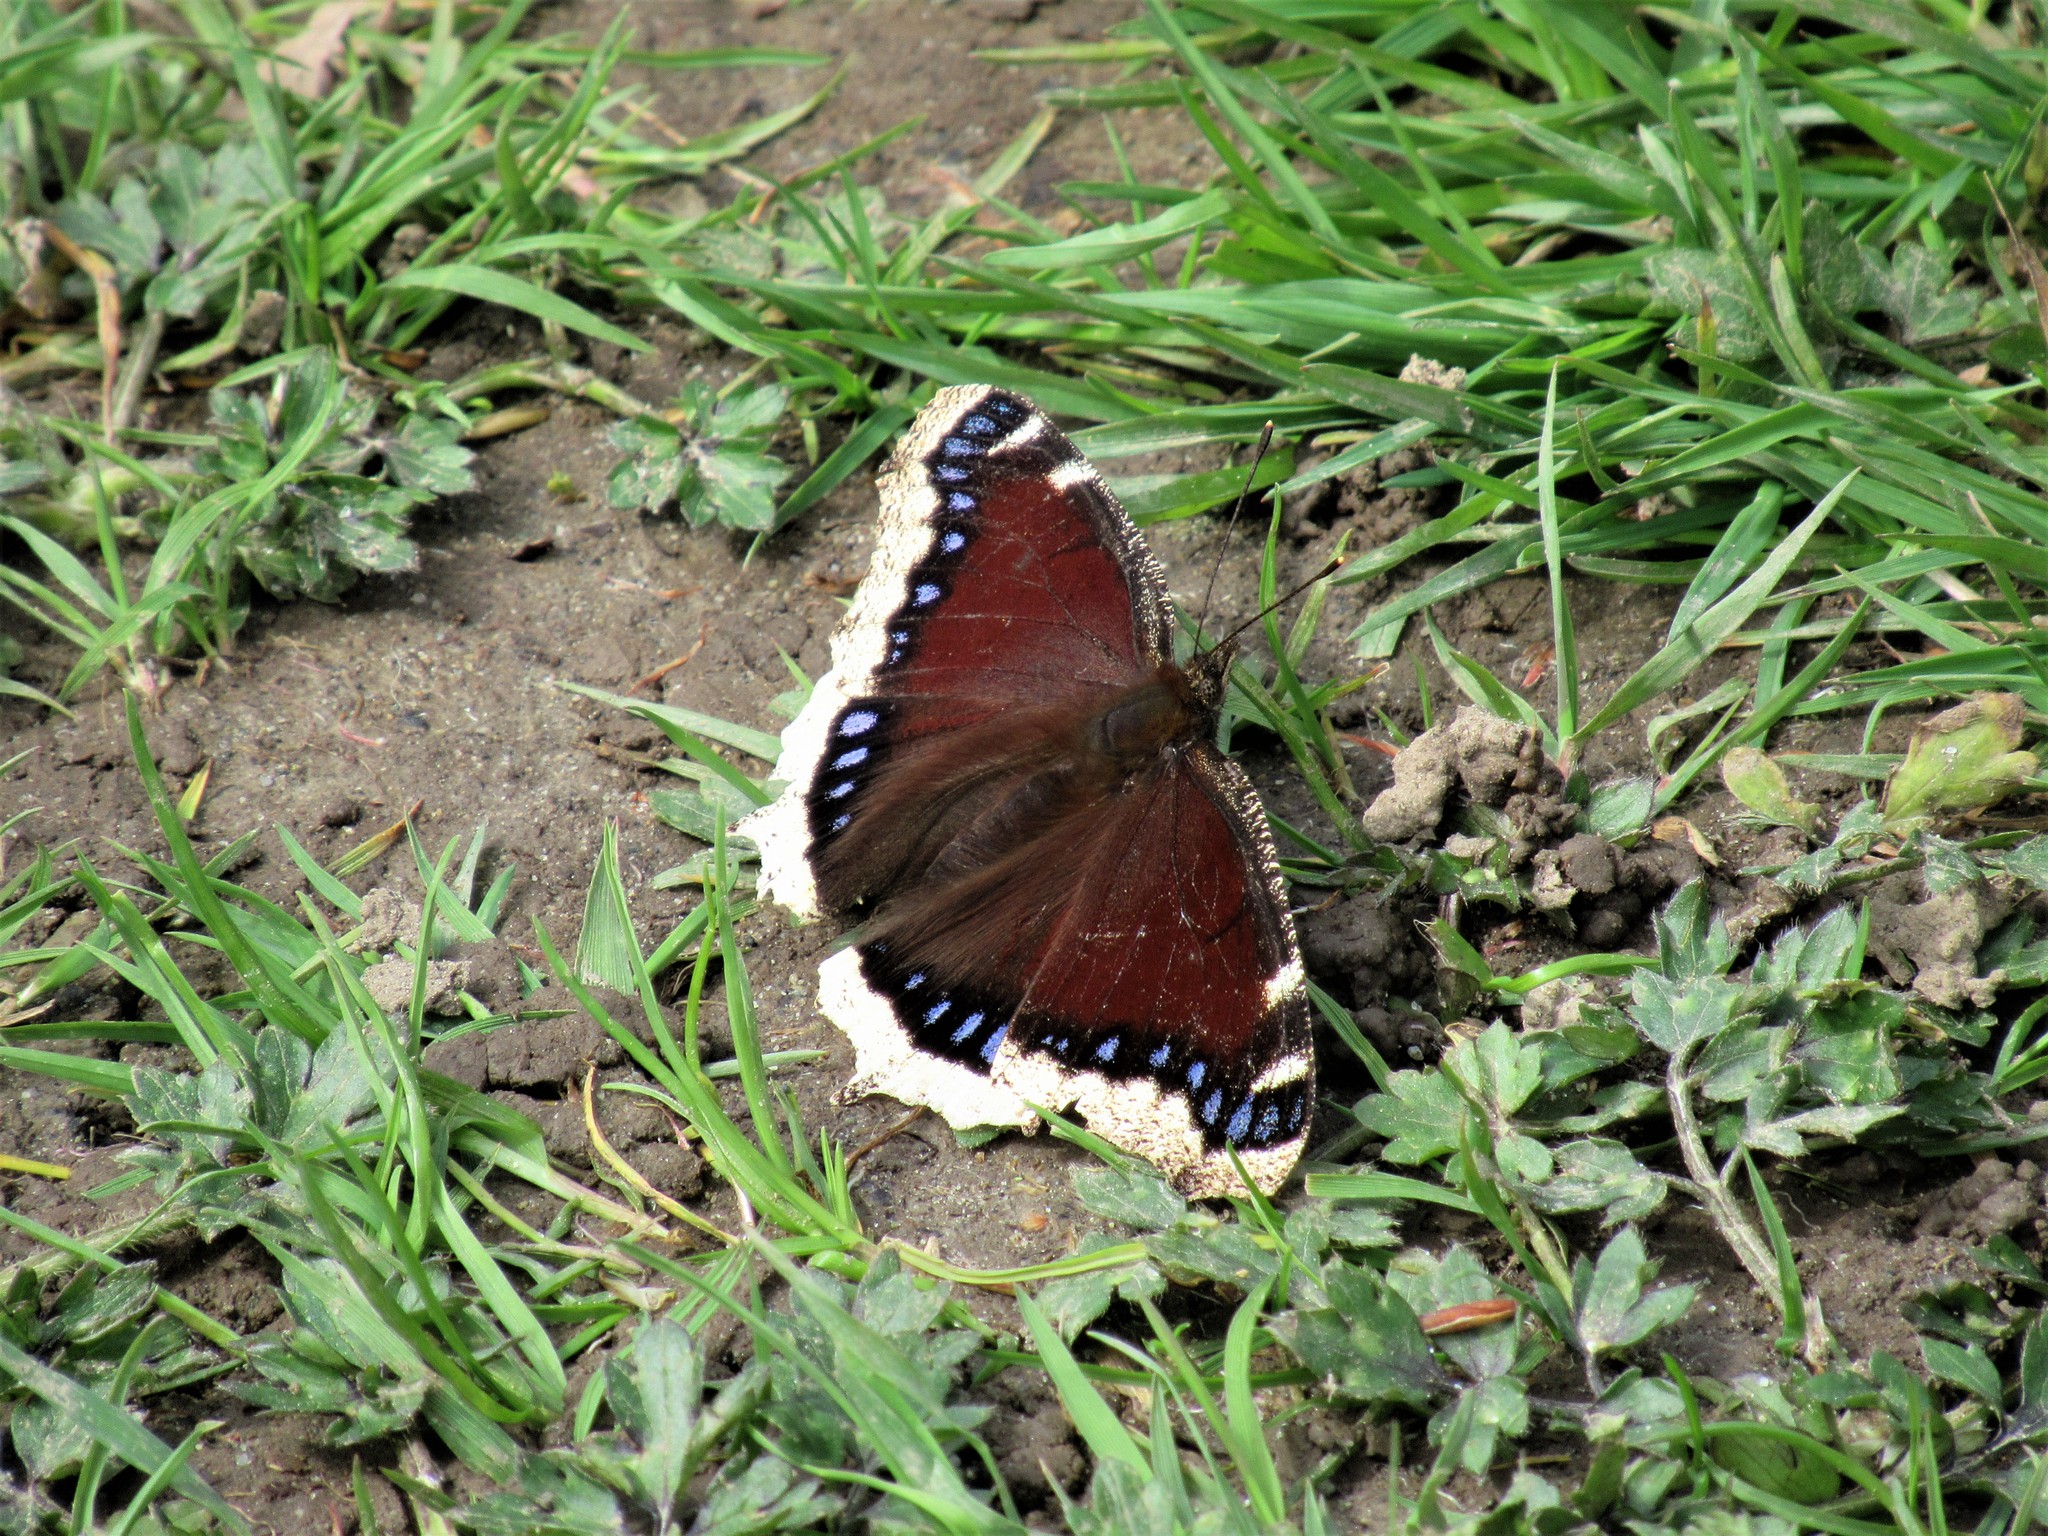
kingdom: Animalia
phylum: Arthropoda
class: Insecta
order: Lepidoptera
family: Nymphalidae
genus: Nymphalis
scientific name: Nymphalis antiopa
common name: Camberwell beauty
